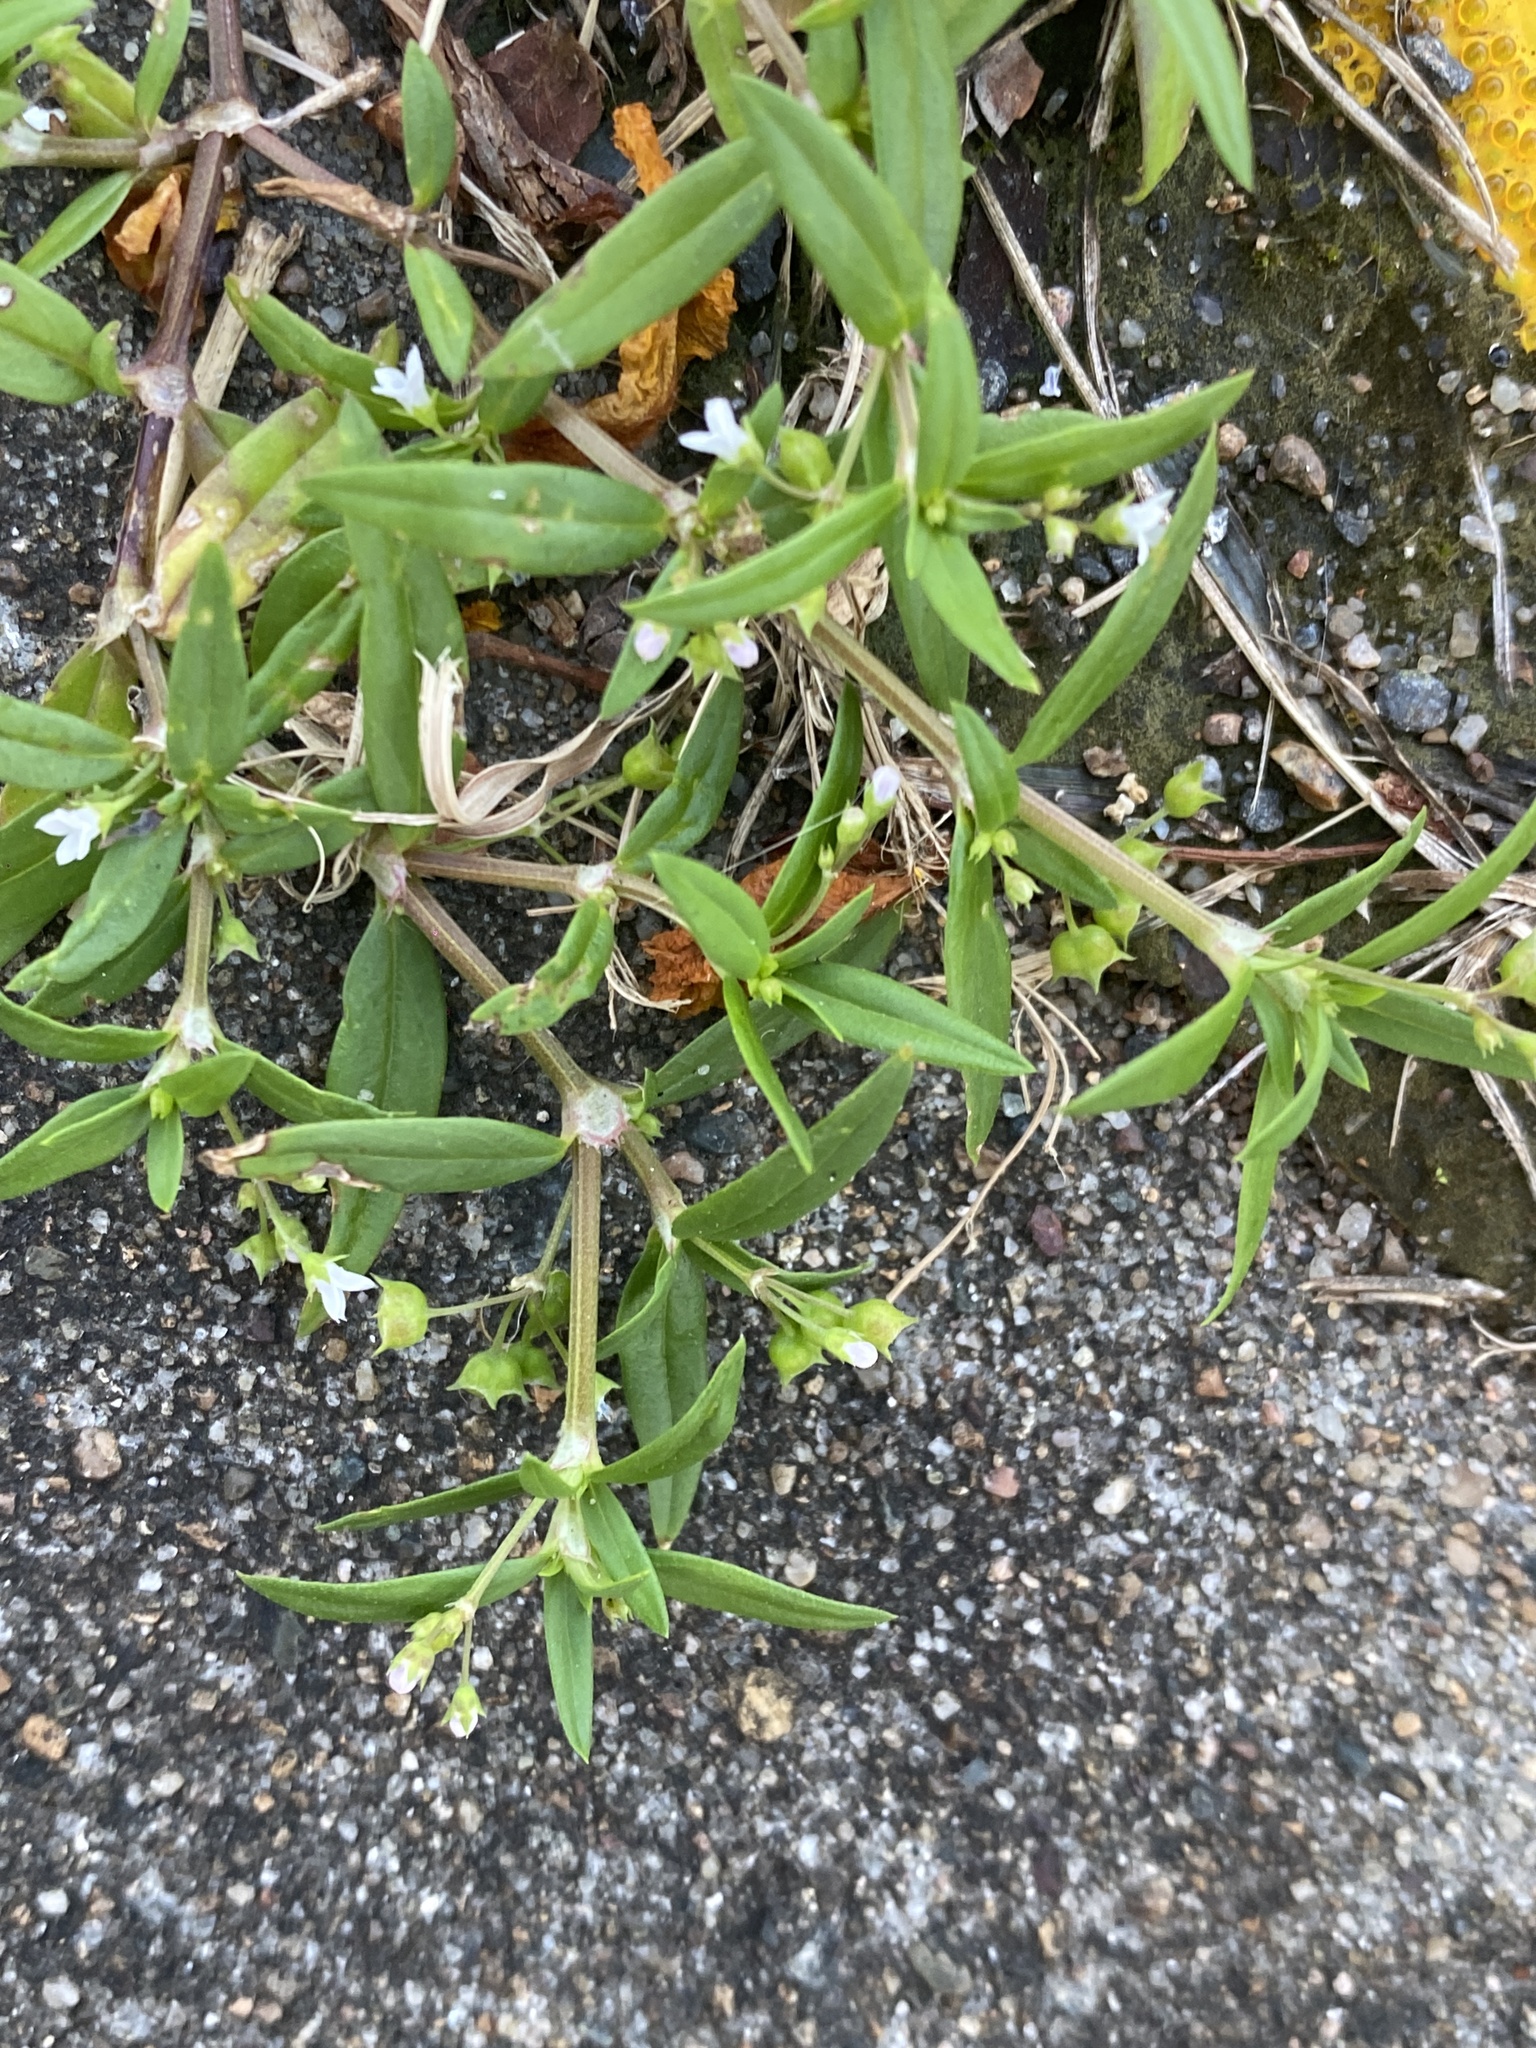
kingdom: Plantae
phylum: Tracheophyta
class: Magnoliopsida
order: Gentianales
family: Rubiaceae
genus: Oldenlandia
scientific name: Oldenlandia corymbosa
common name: Flat-top mille graines
